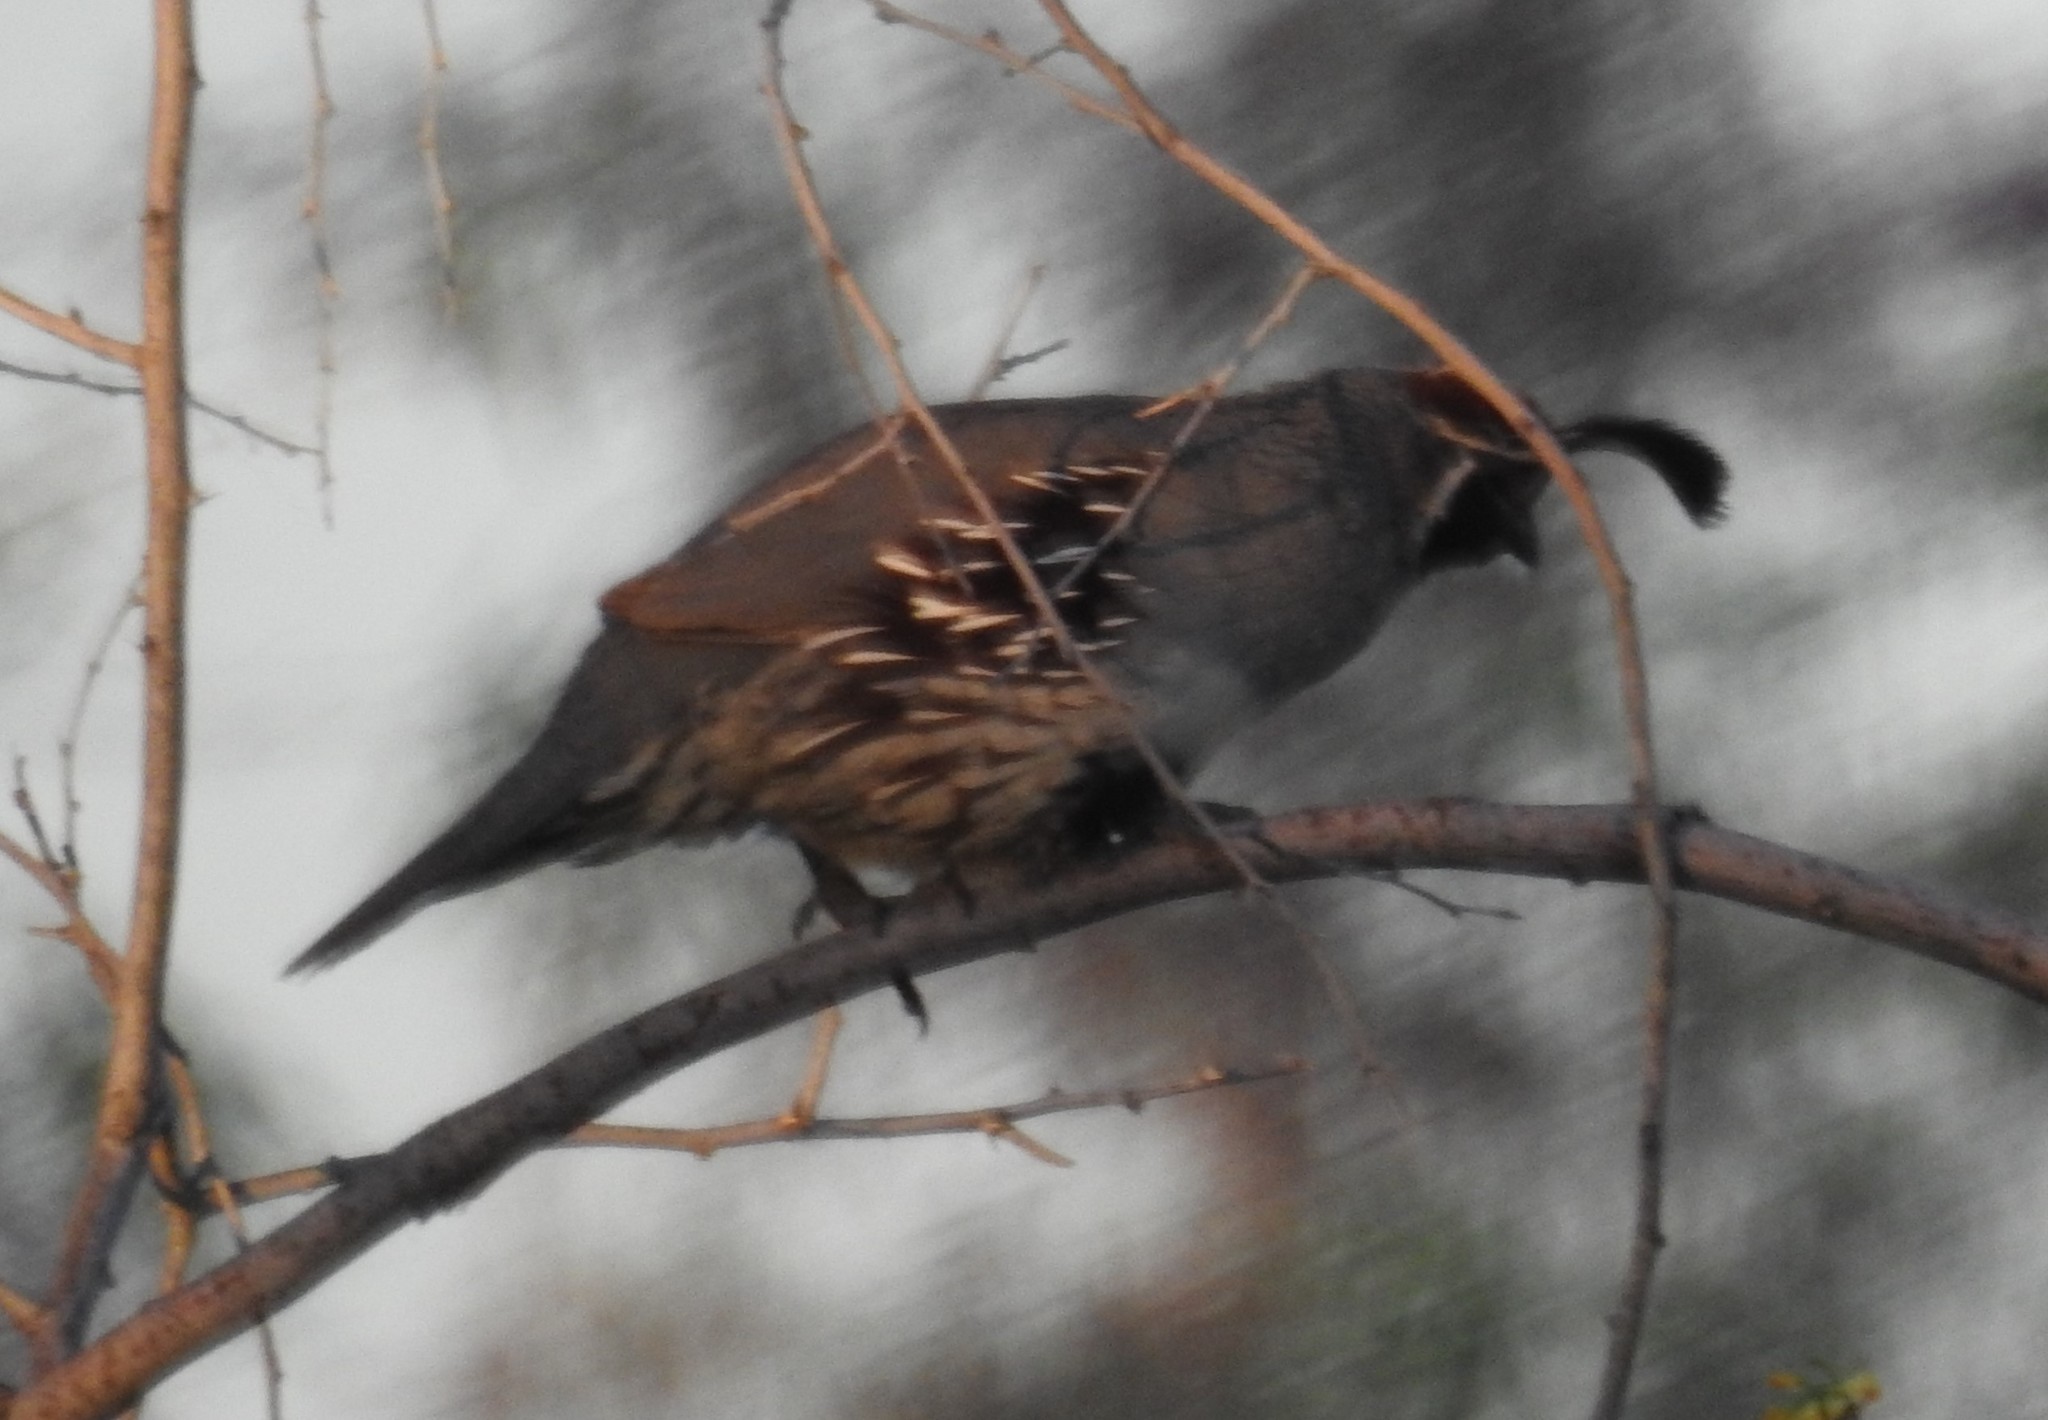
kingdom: Animalia
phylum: Chordata
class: Aves
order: Galliformes
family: Odontophoridae
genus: Callipepla
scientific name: Callipepla gambelii
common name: Gambel's quail
